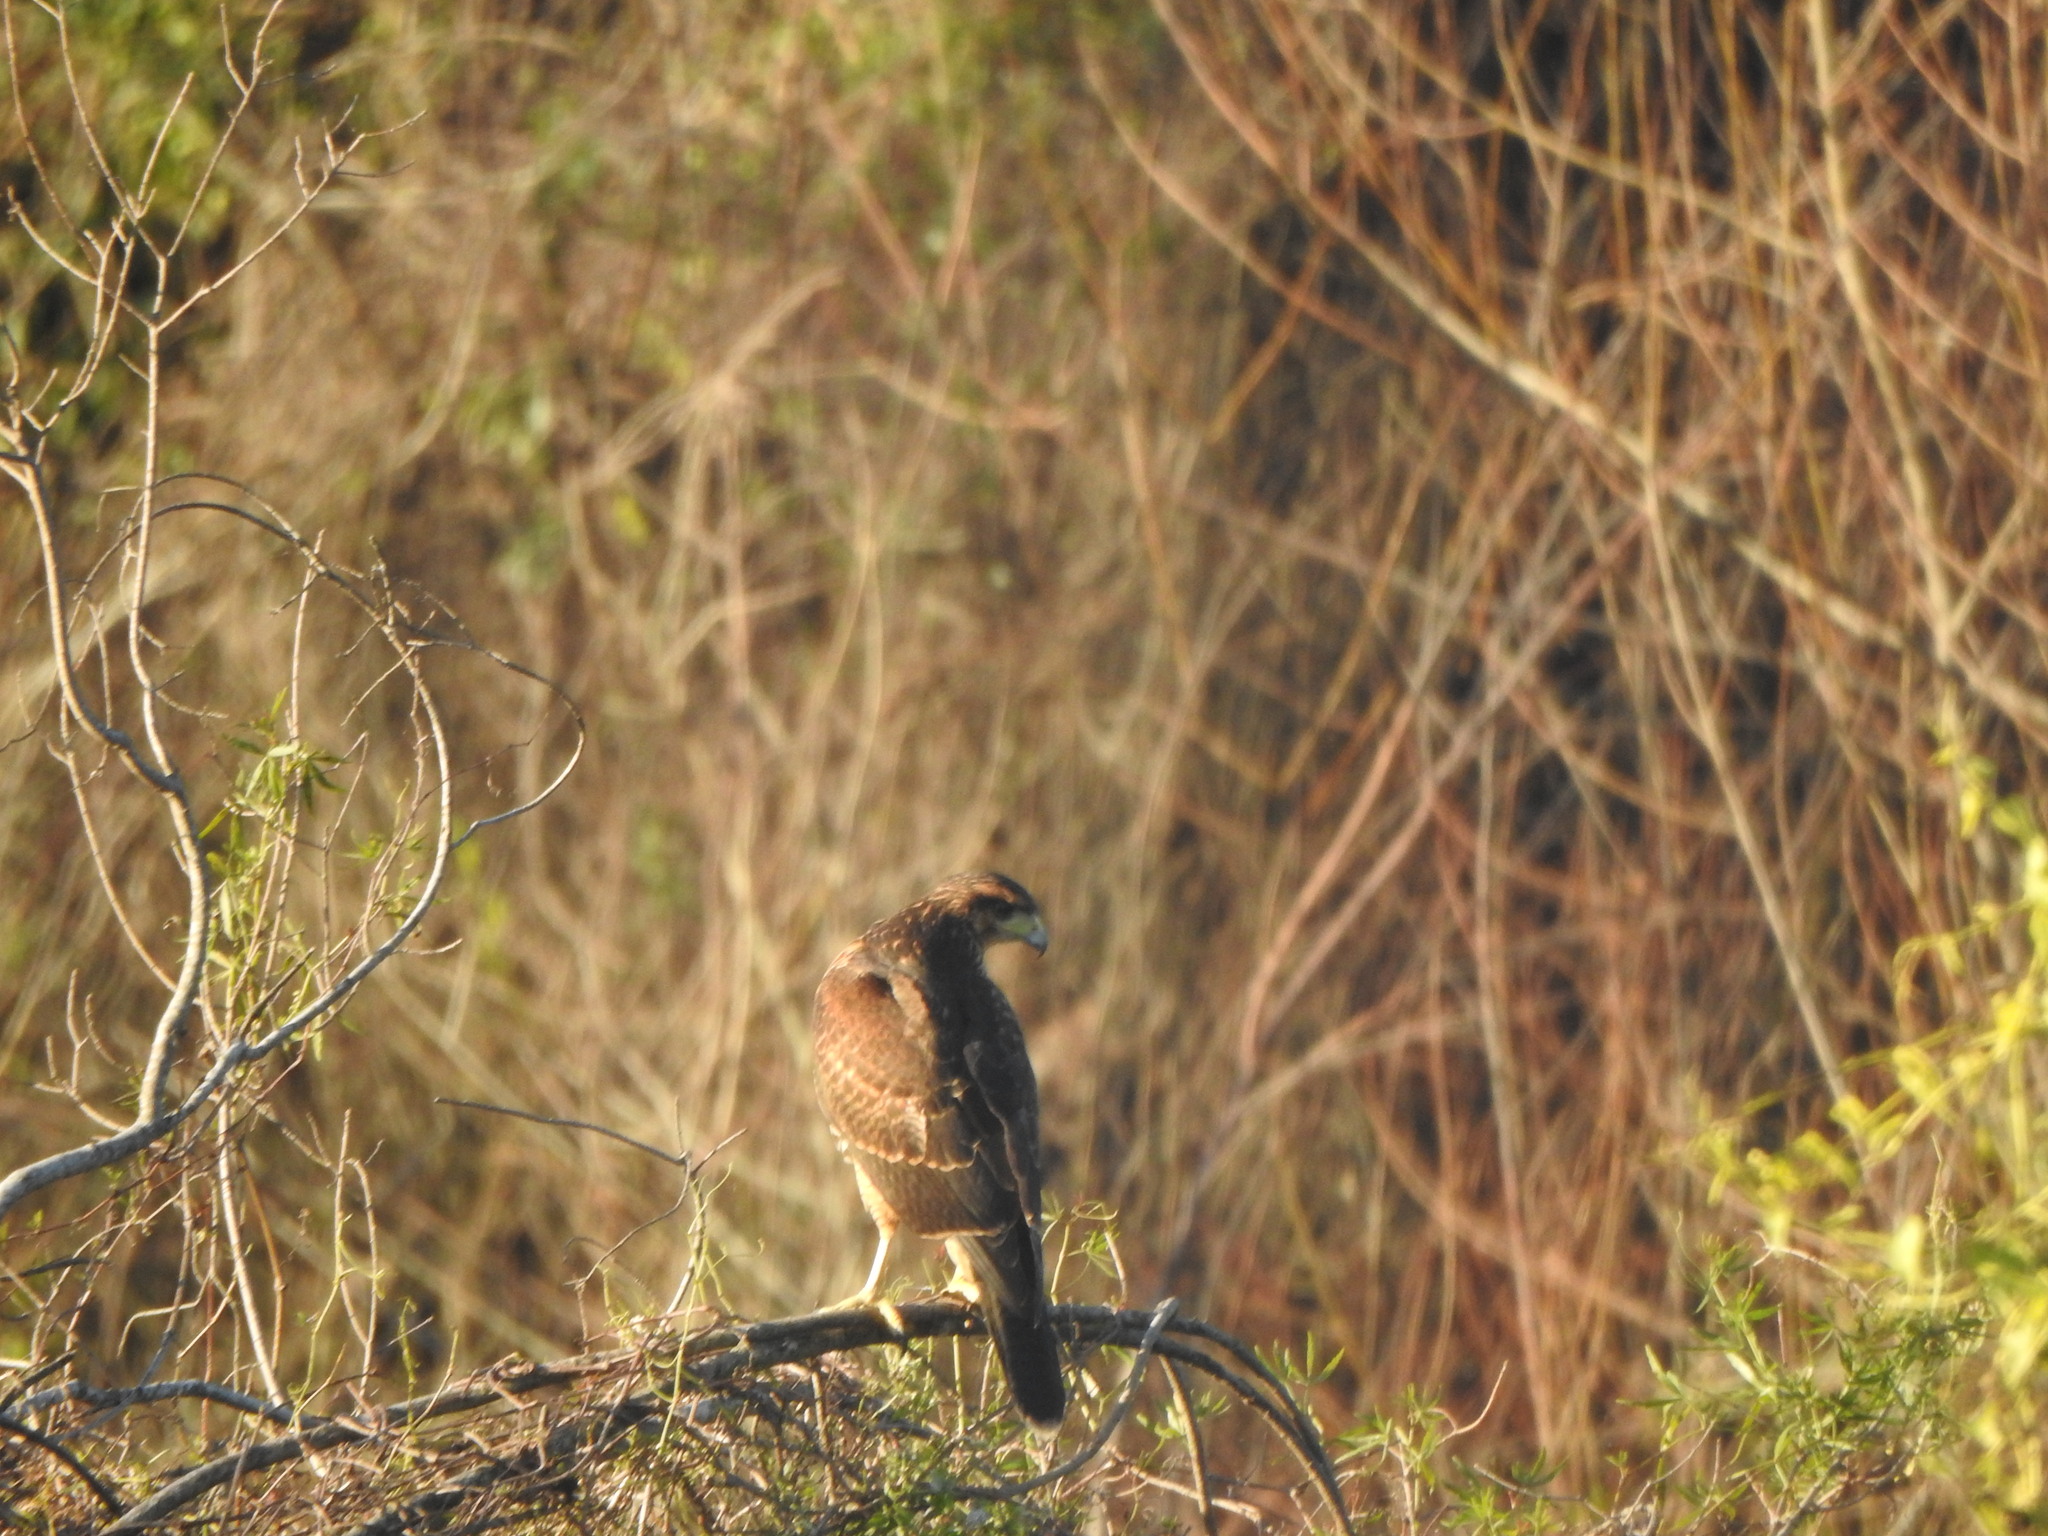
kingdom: Animalia
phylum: Chordata
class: Aves
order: Accipitriformes
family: Accipitridae
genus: Parabuteo
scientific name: Parabuteo unicinctus
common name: Harris's hawk
